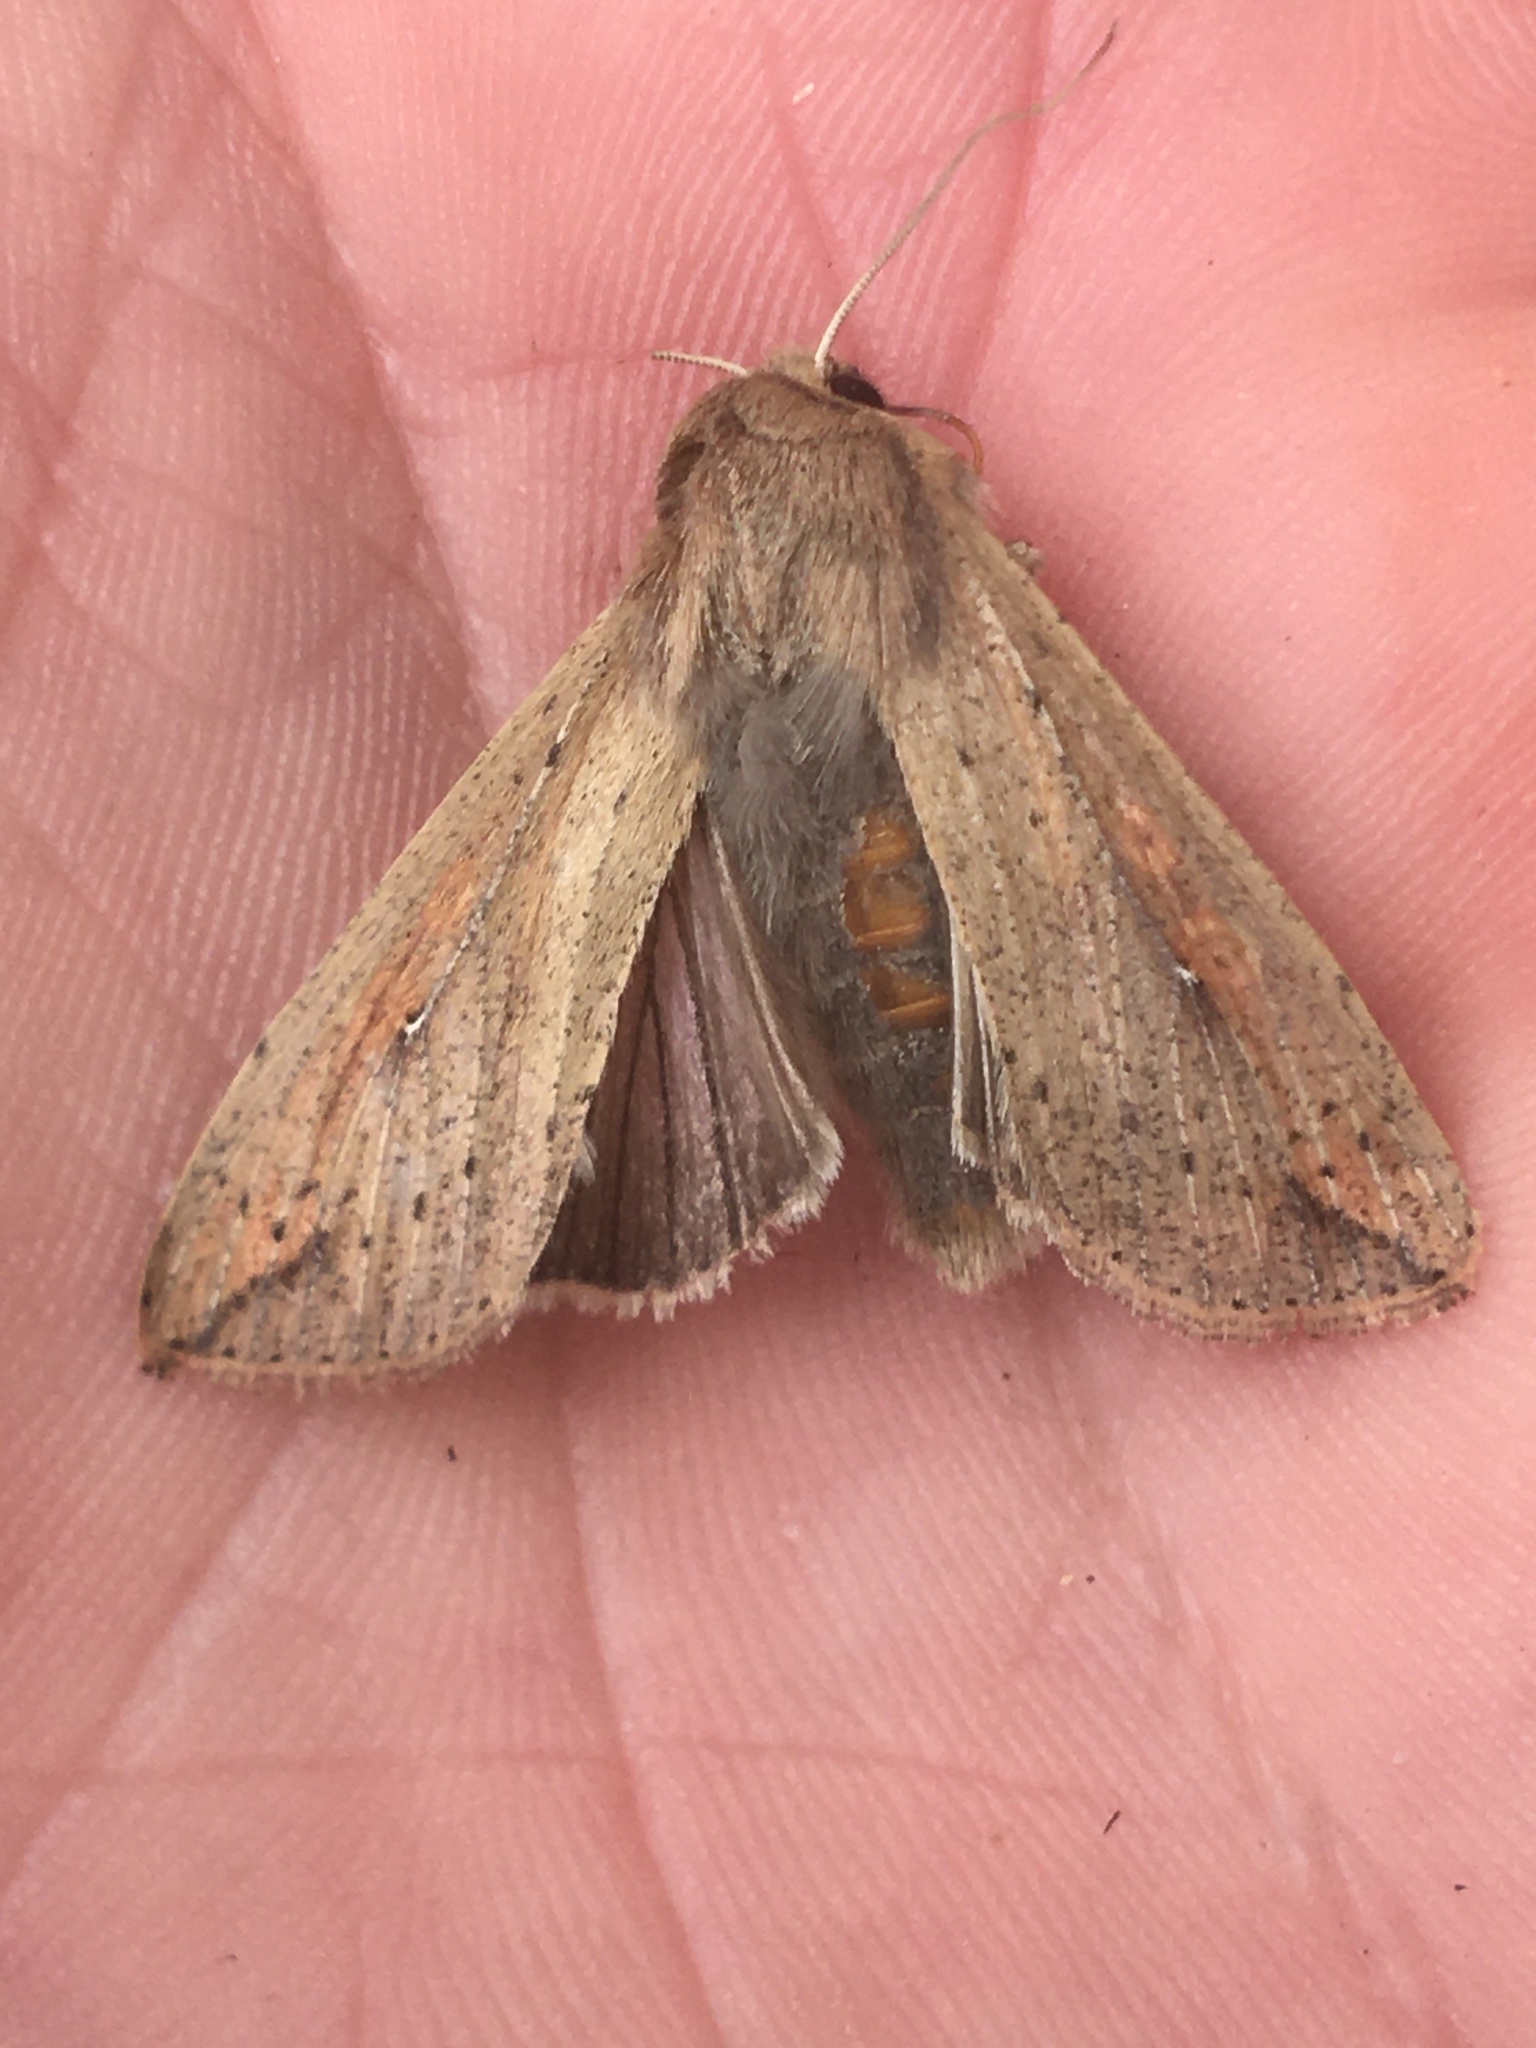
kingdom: Animalia
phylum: Arthropoda
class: Insecta
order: Lepidoptera
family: Noctuidae
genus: Mythimna
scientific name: Mythimna unipuncta
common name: White-speck
